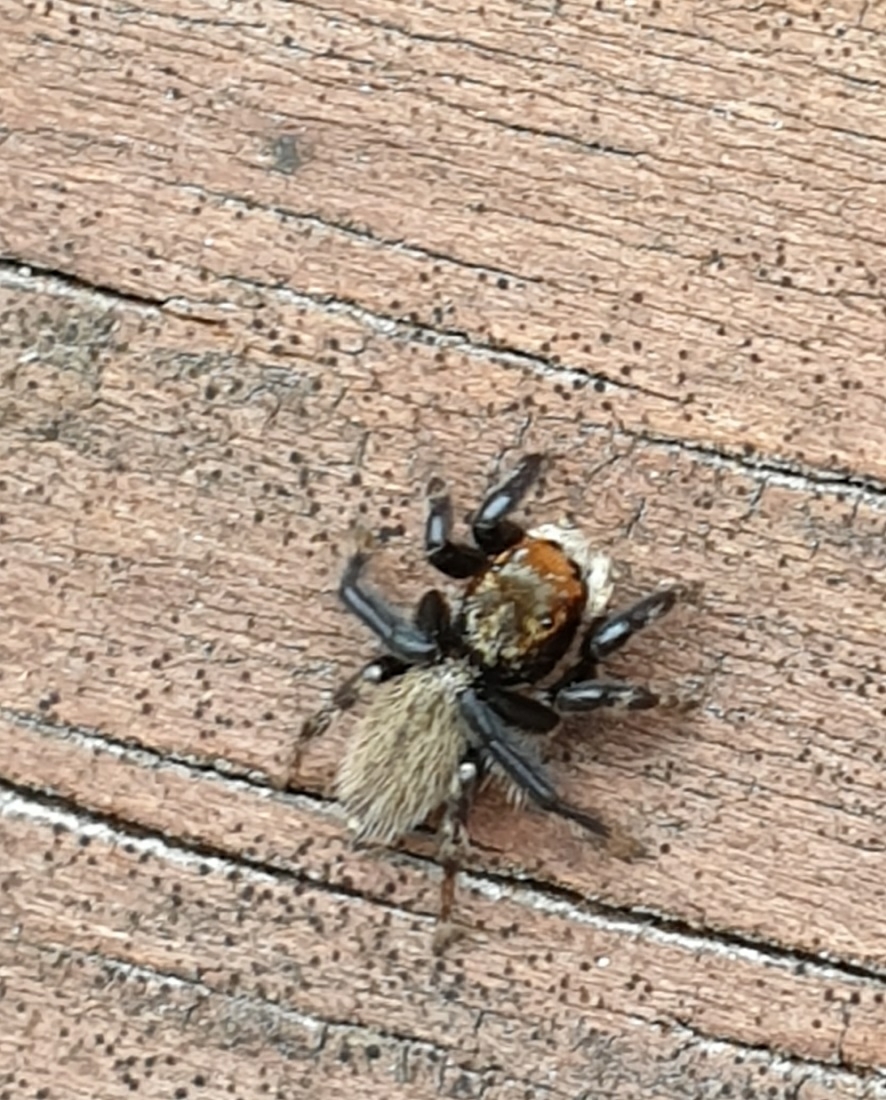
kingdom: Animalia
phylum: Arthropoda
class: Arachnida
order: Araneae
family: Salticidae
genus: Maratus
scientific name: Maratus griseus
